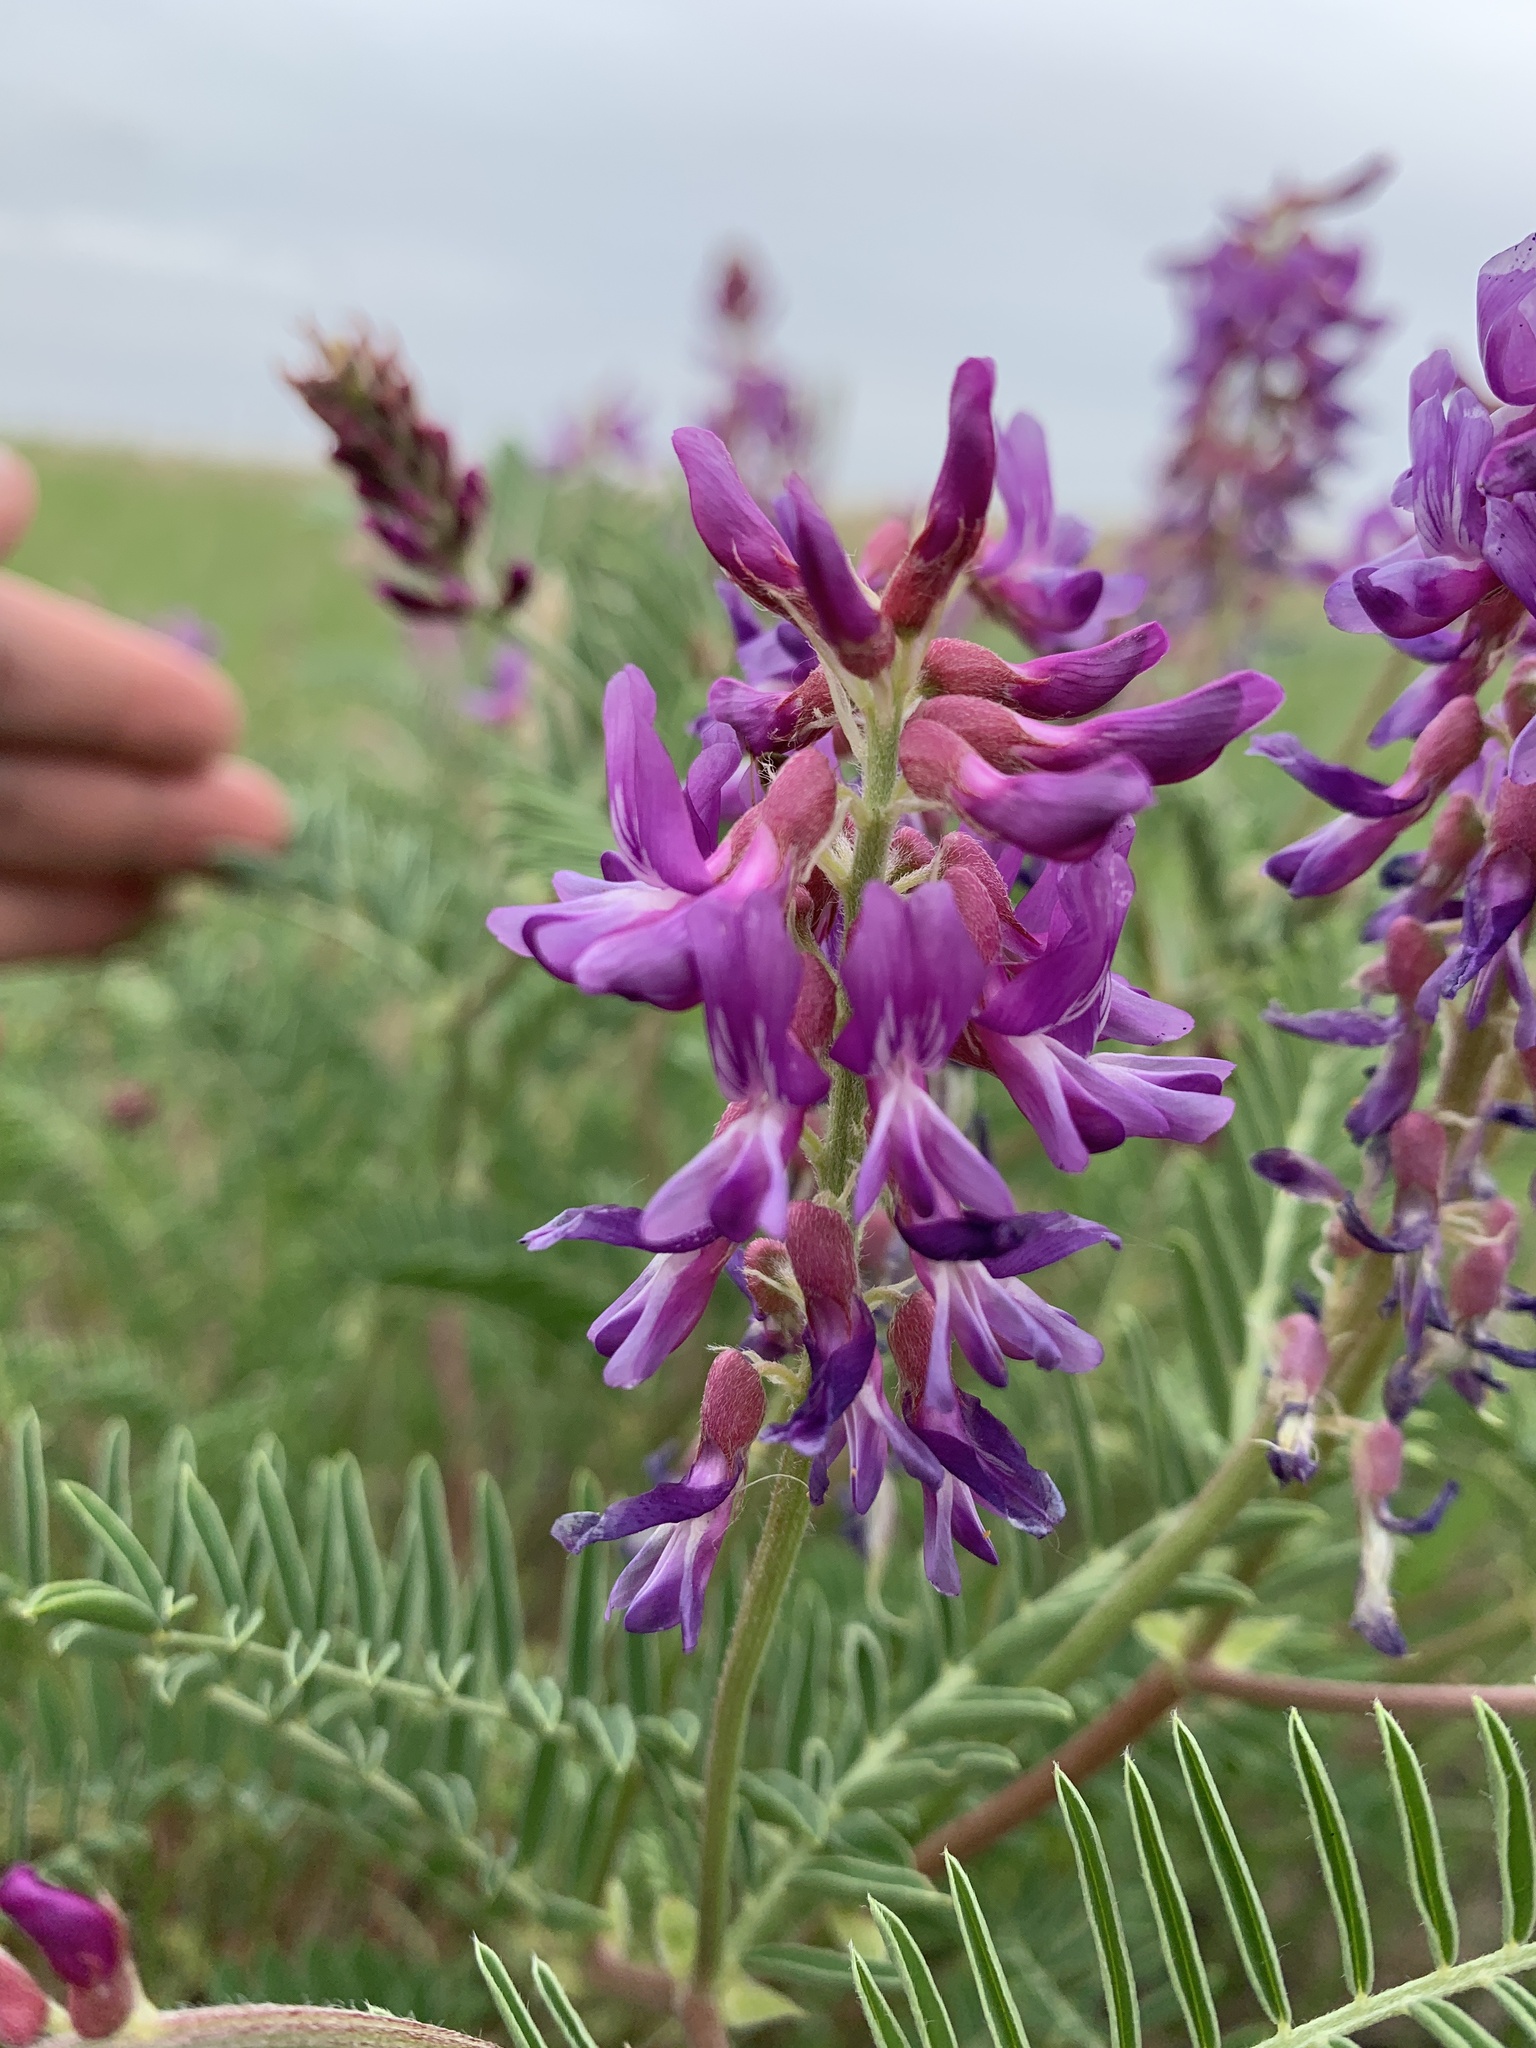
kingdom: Plantae
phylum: Tracheophyta
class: Magnoliopsida
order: Fabales
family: Fabaceae
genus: Astragalus
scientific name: Astragalus bisulcatus
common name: Two-groove milk-vetch
